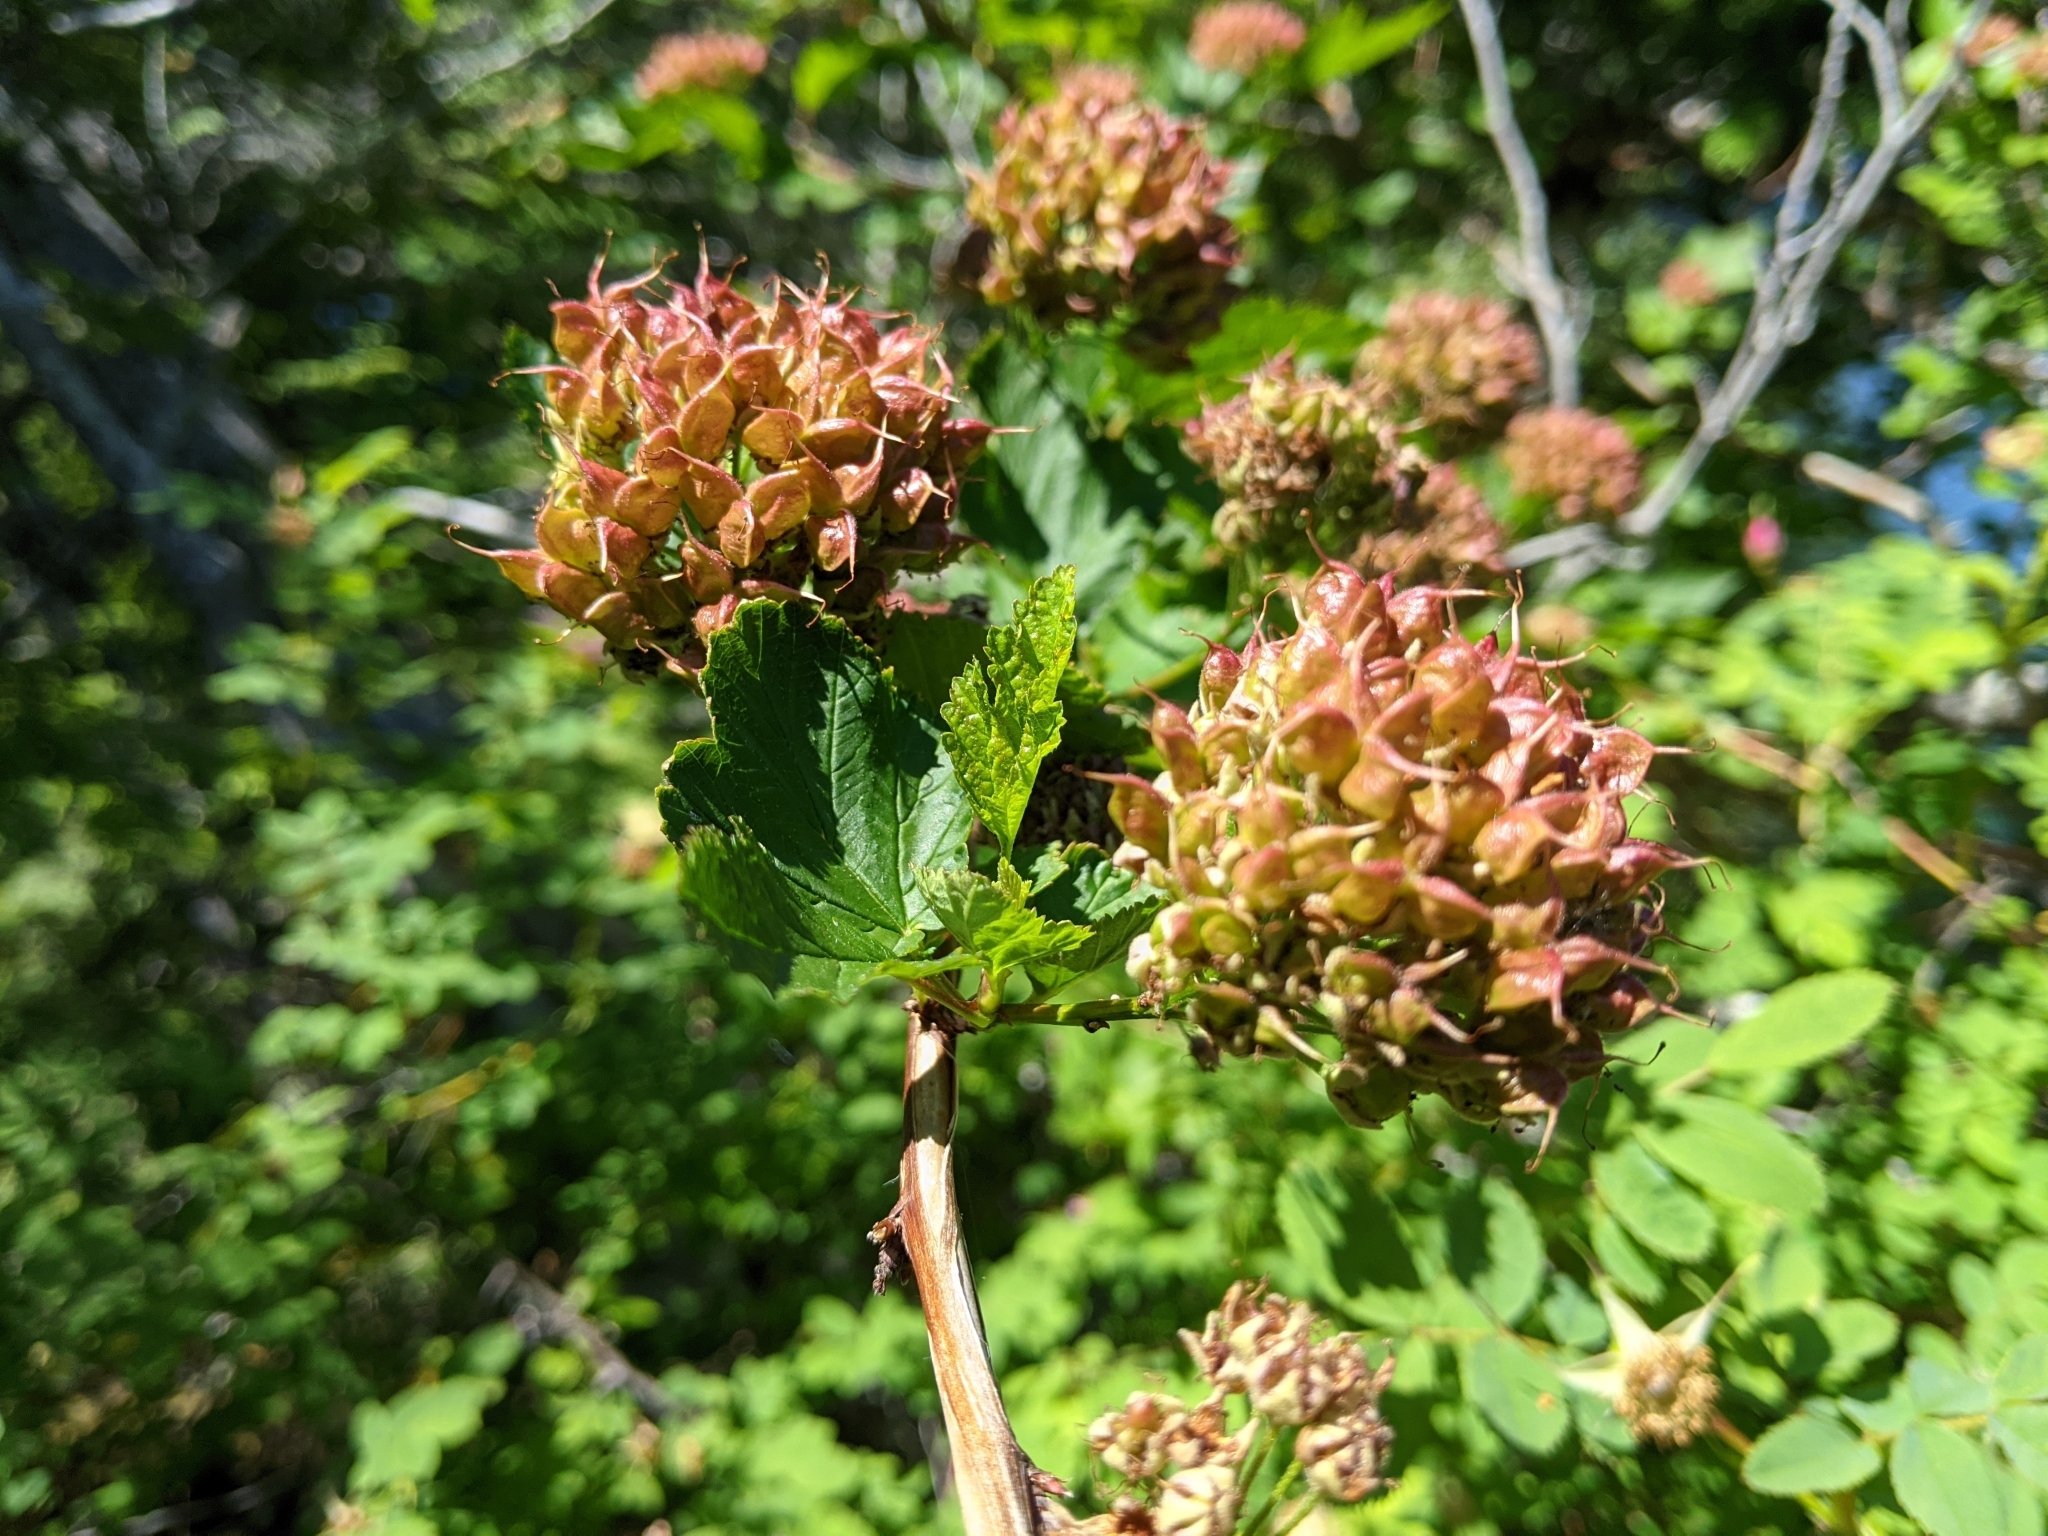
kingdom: Plantae
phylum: Tracheophyta
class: Magnoliopsida
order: Rosales
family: Rosaceae
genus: Physocarpus
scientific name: Physocarpus capitatus
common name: Pacific ninebark
